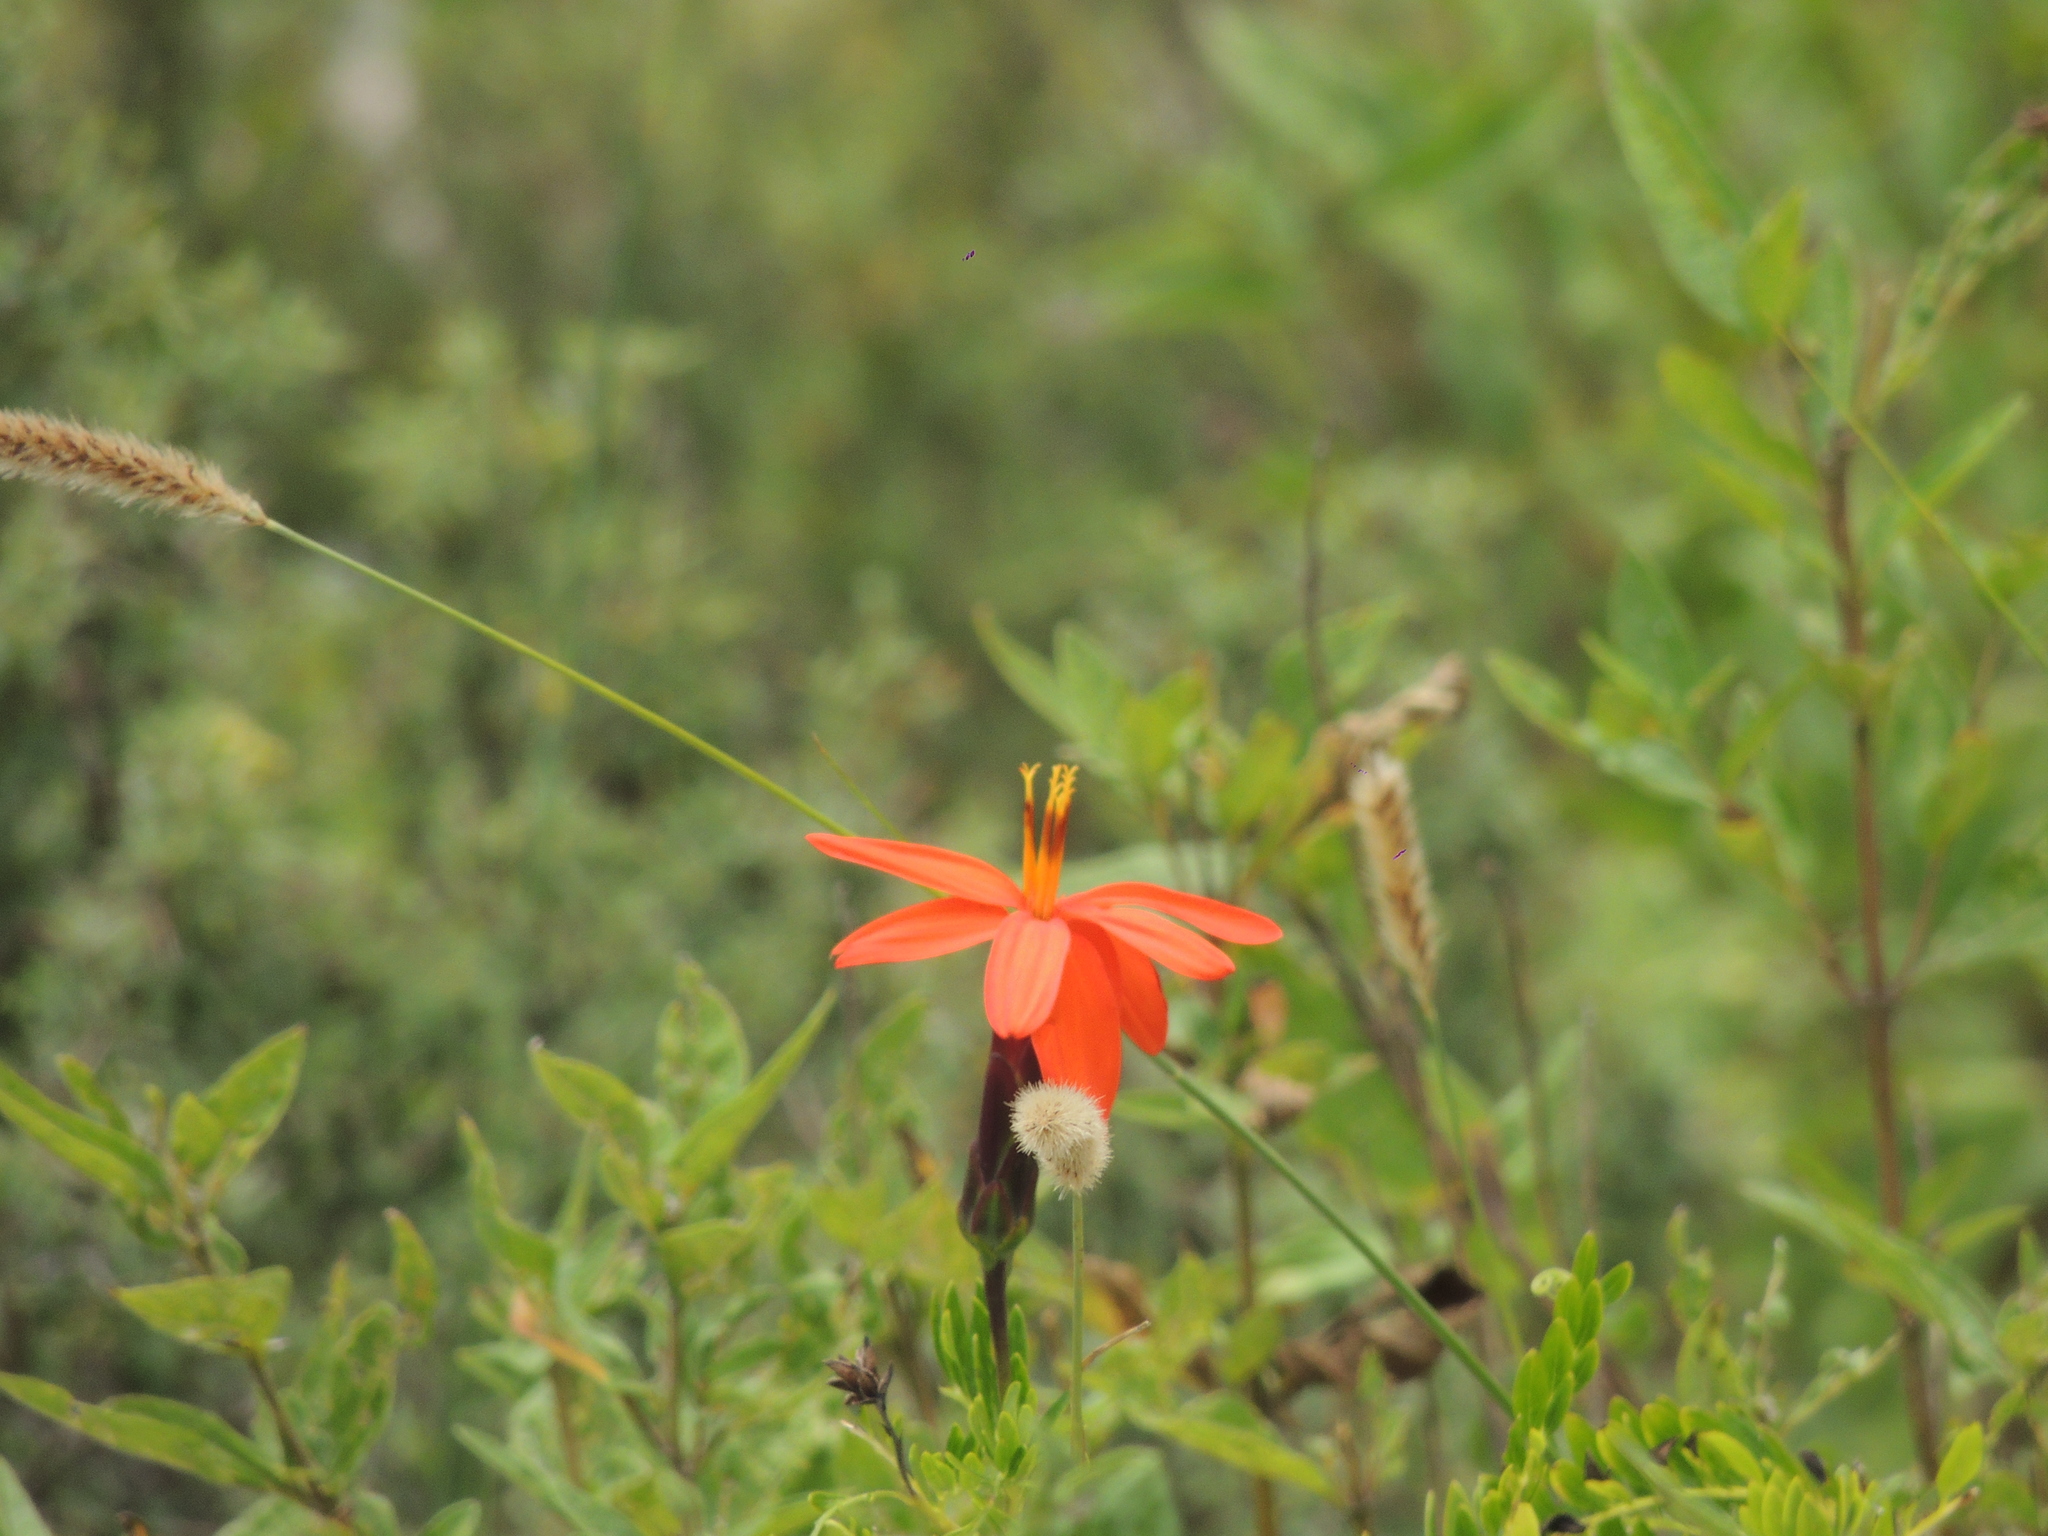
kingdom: Plantae
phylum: Tracheophyta
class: Magnoliopsida
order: Asterales
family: Asteraceae
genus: Mutisia
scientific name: Mutisia acuminata
